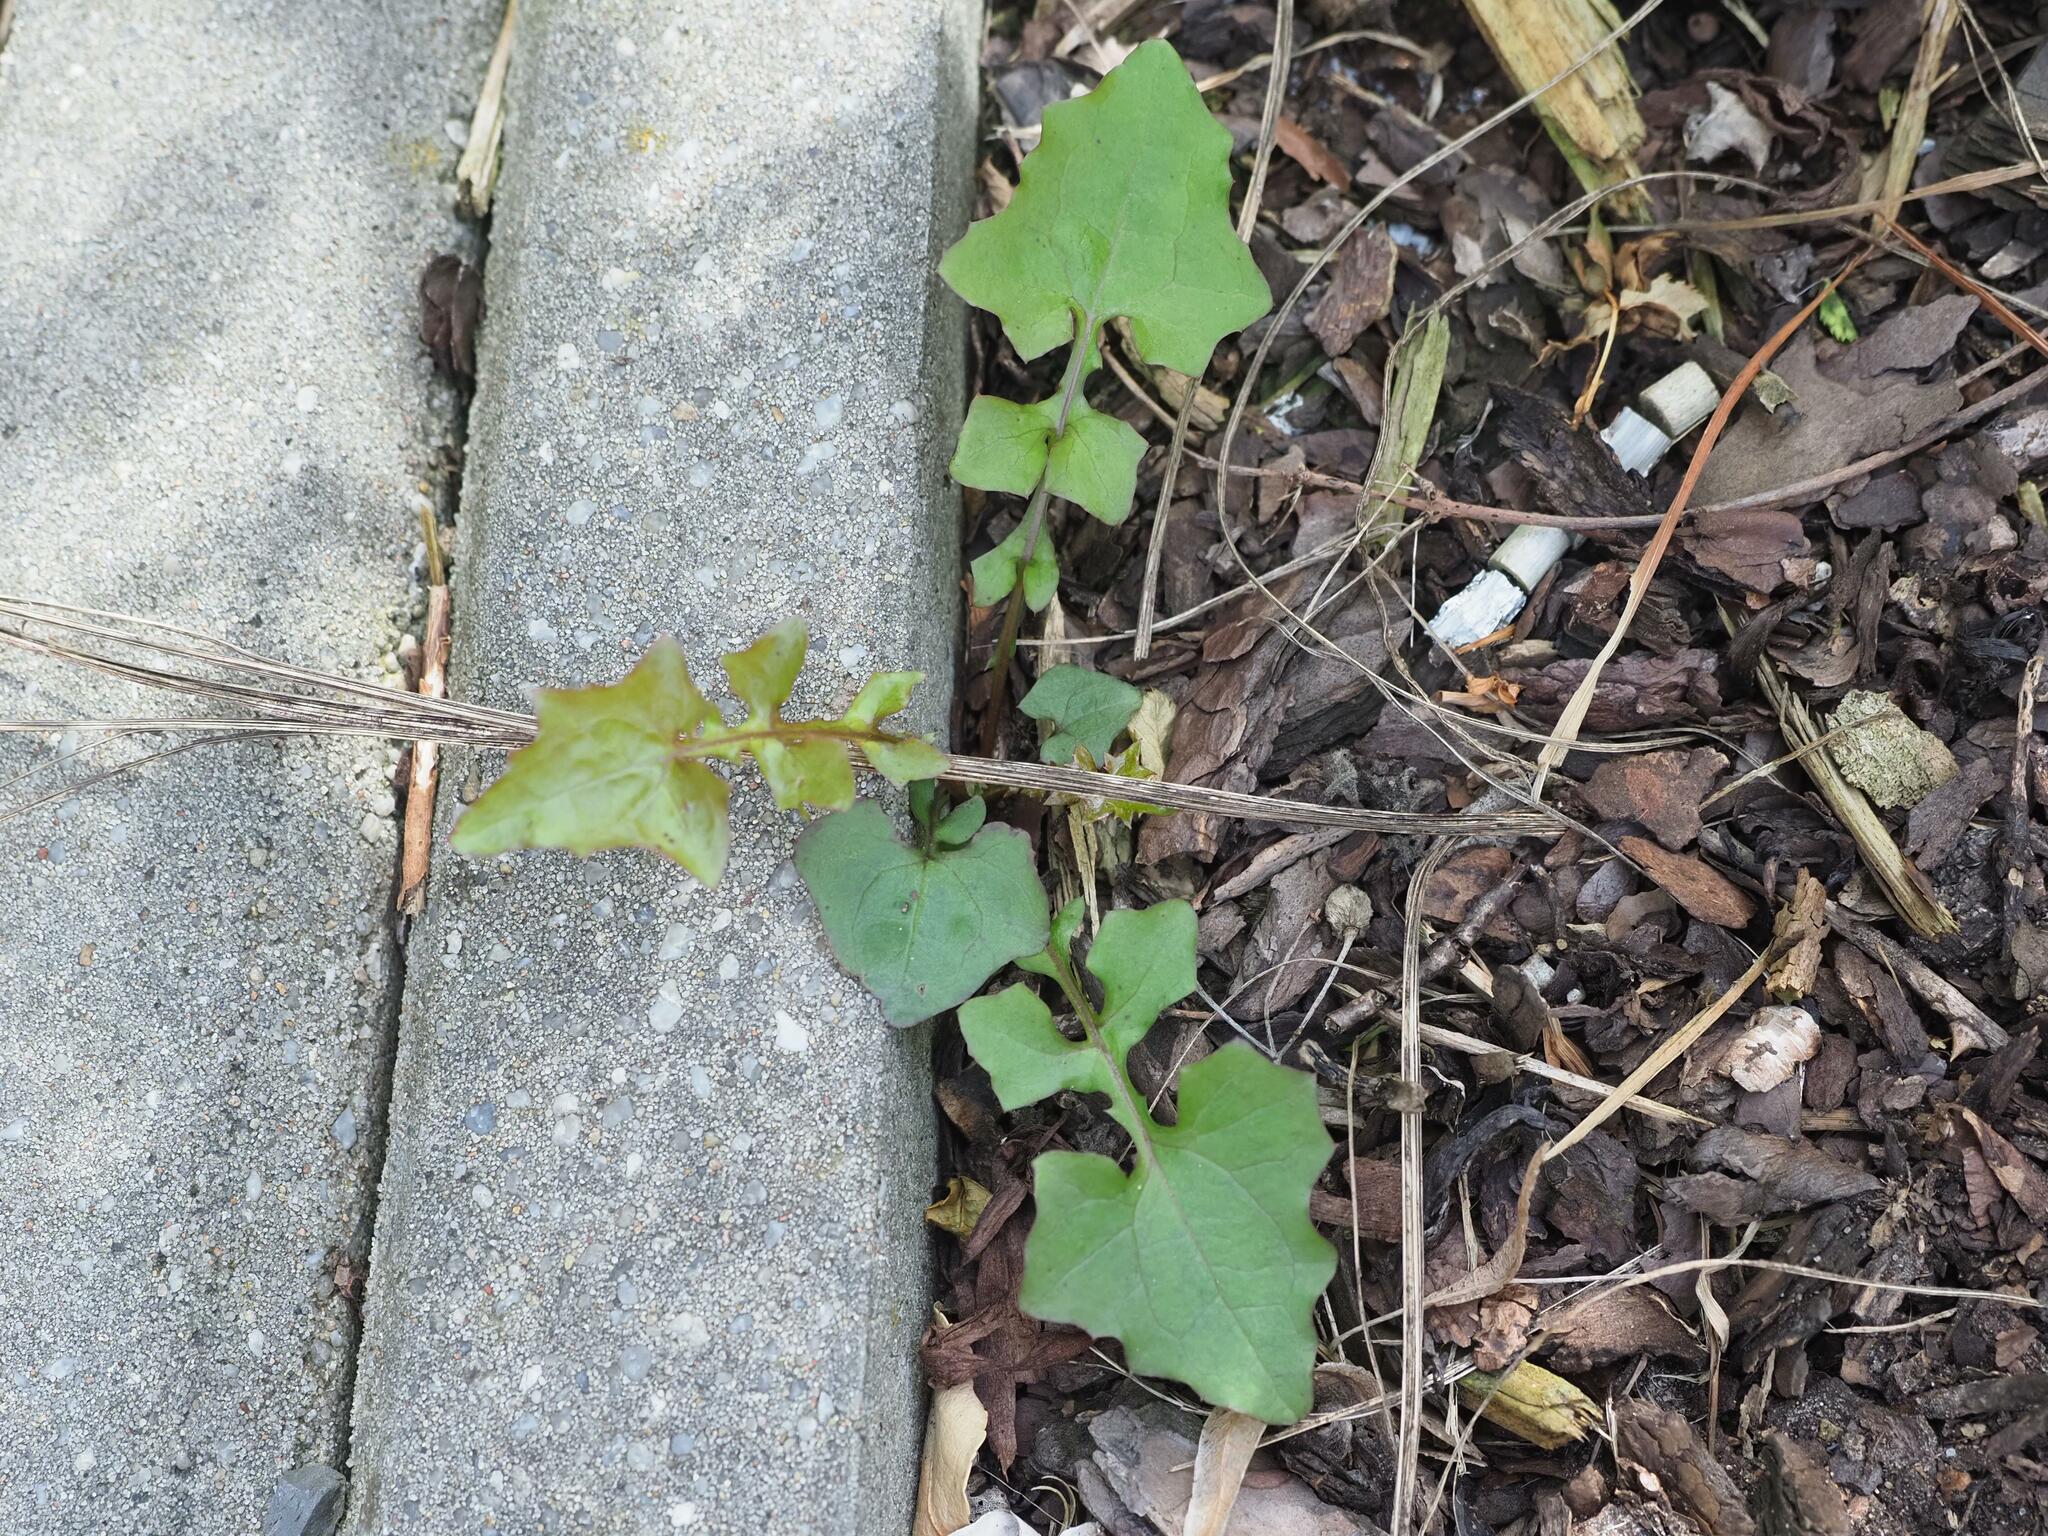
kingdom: Plantae
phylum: Tracheophyta
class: Magnoliopsida
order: Asterales
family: Asteraceae
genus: Mycelis
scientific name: Mycelis muralis
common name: Wall lettuce
